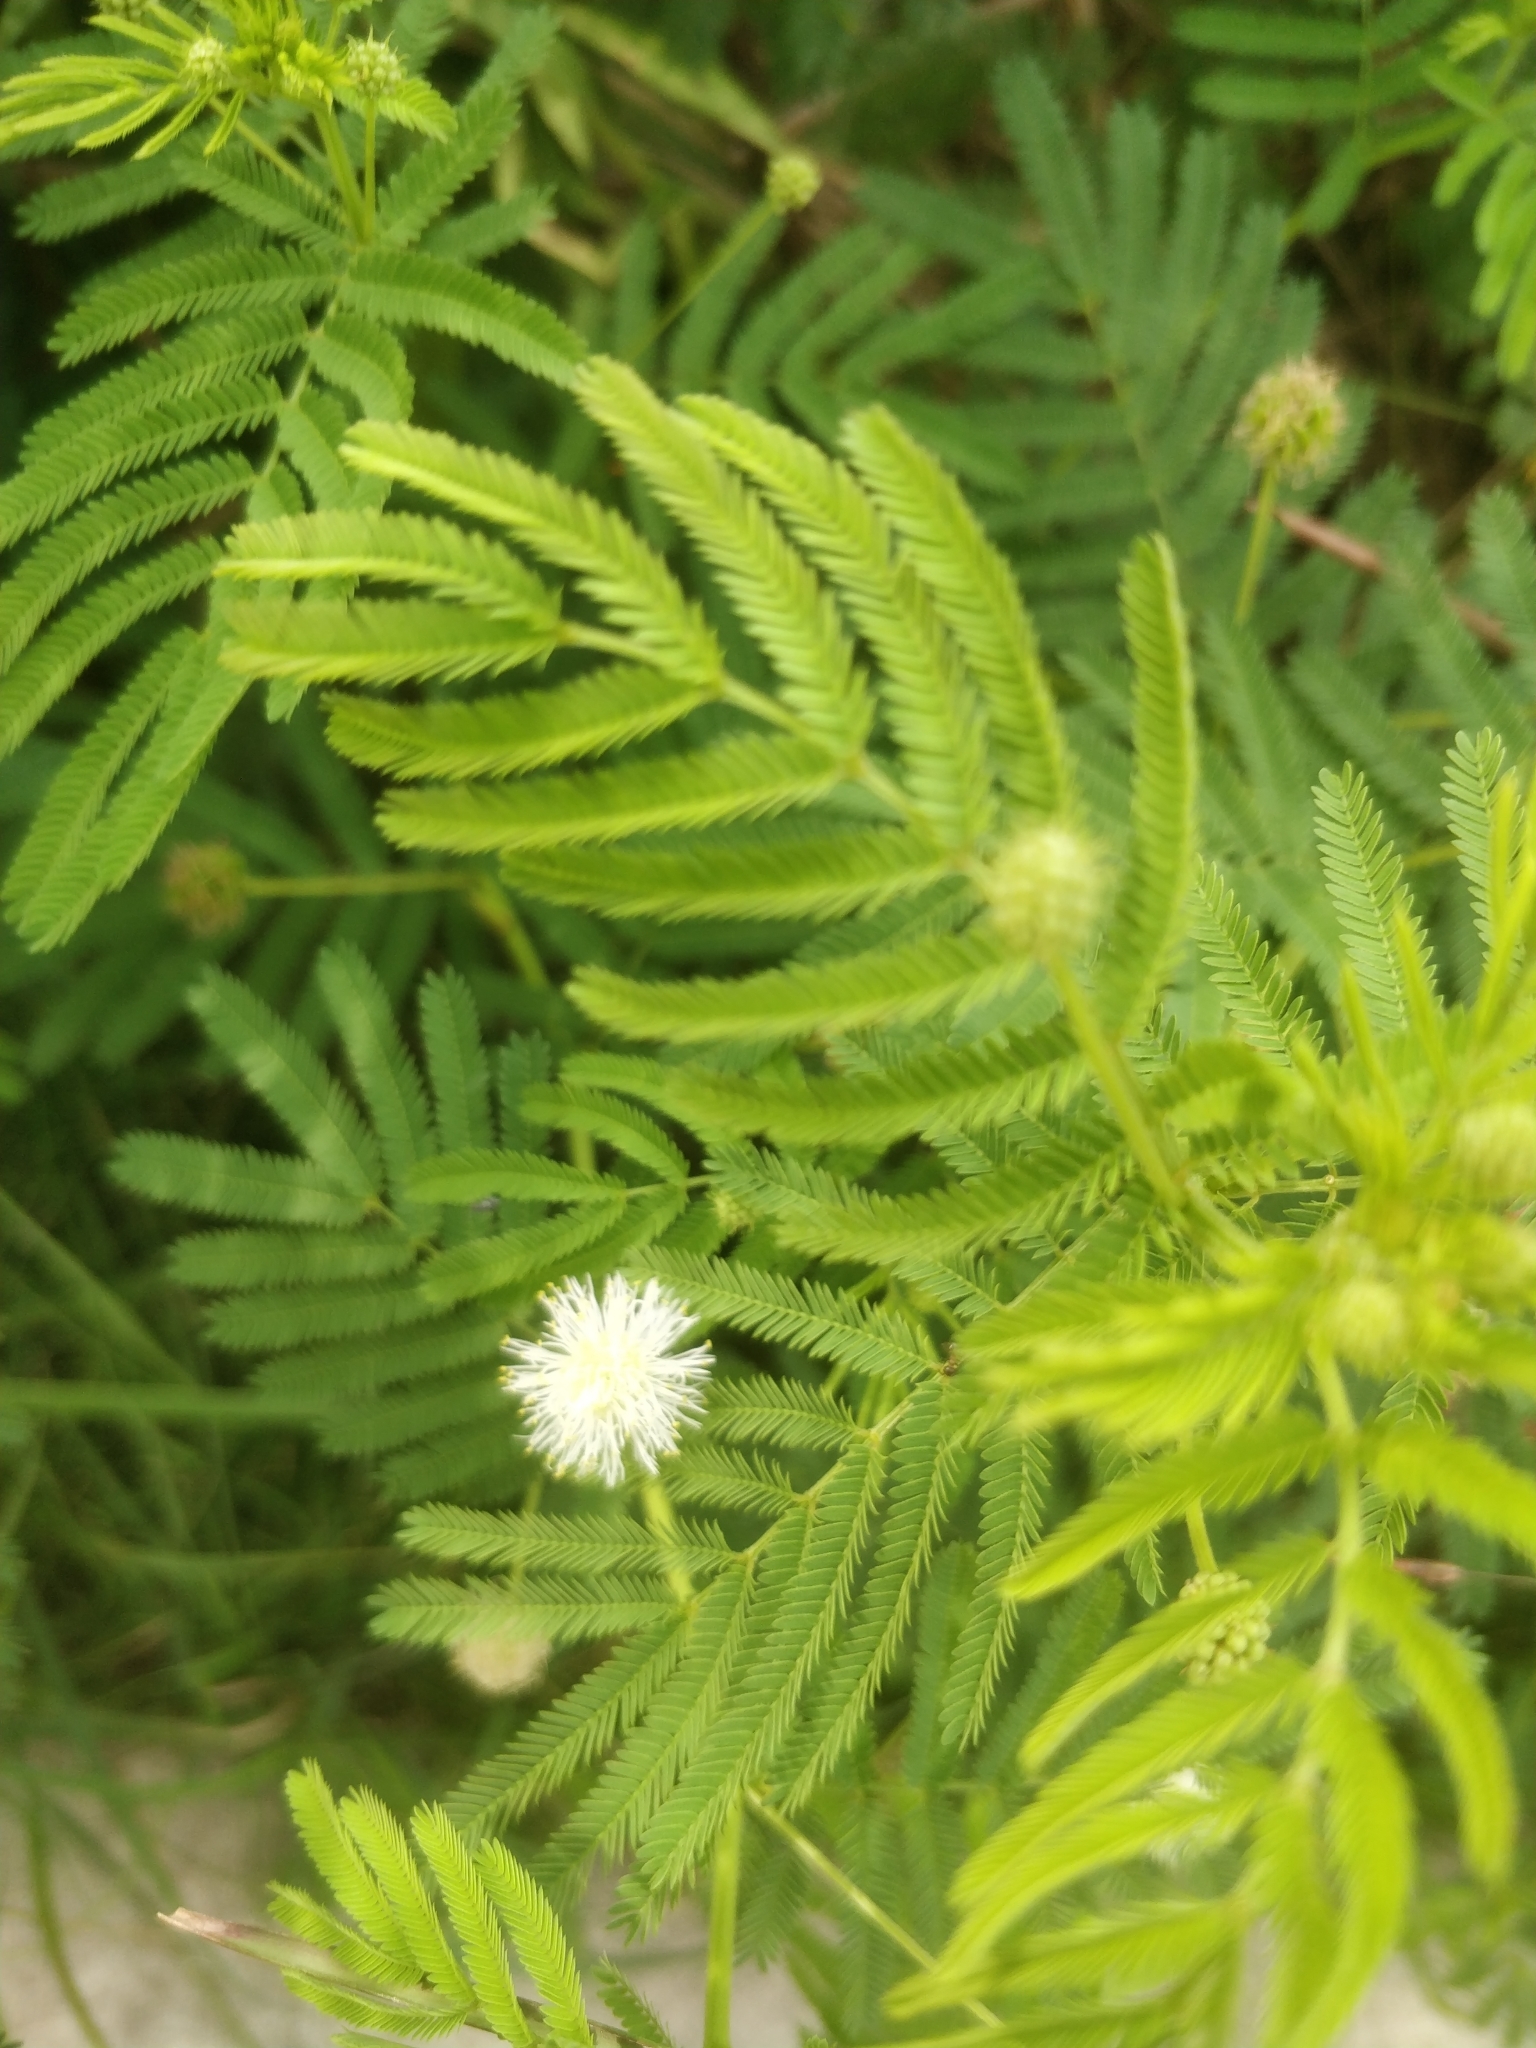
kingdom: Plantae
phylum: Tracheophyta
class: Magnoliopsida
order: Fabales
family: Fabaceae
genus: Desmanthus
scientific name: Desmanthus illinoensis
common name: Illinois bundle-flower
